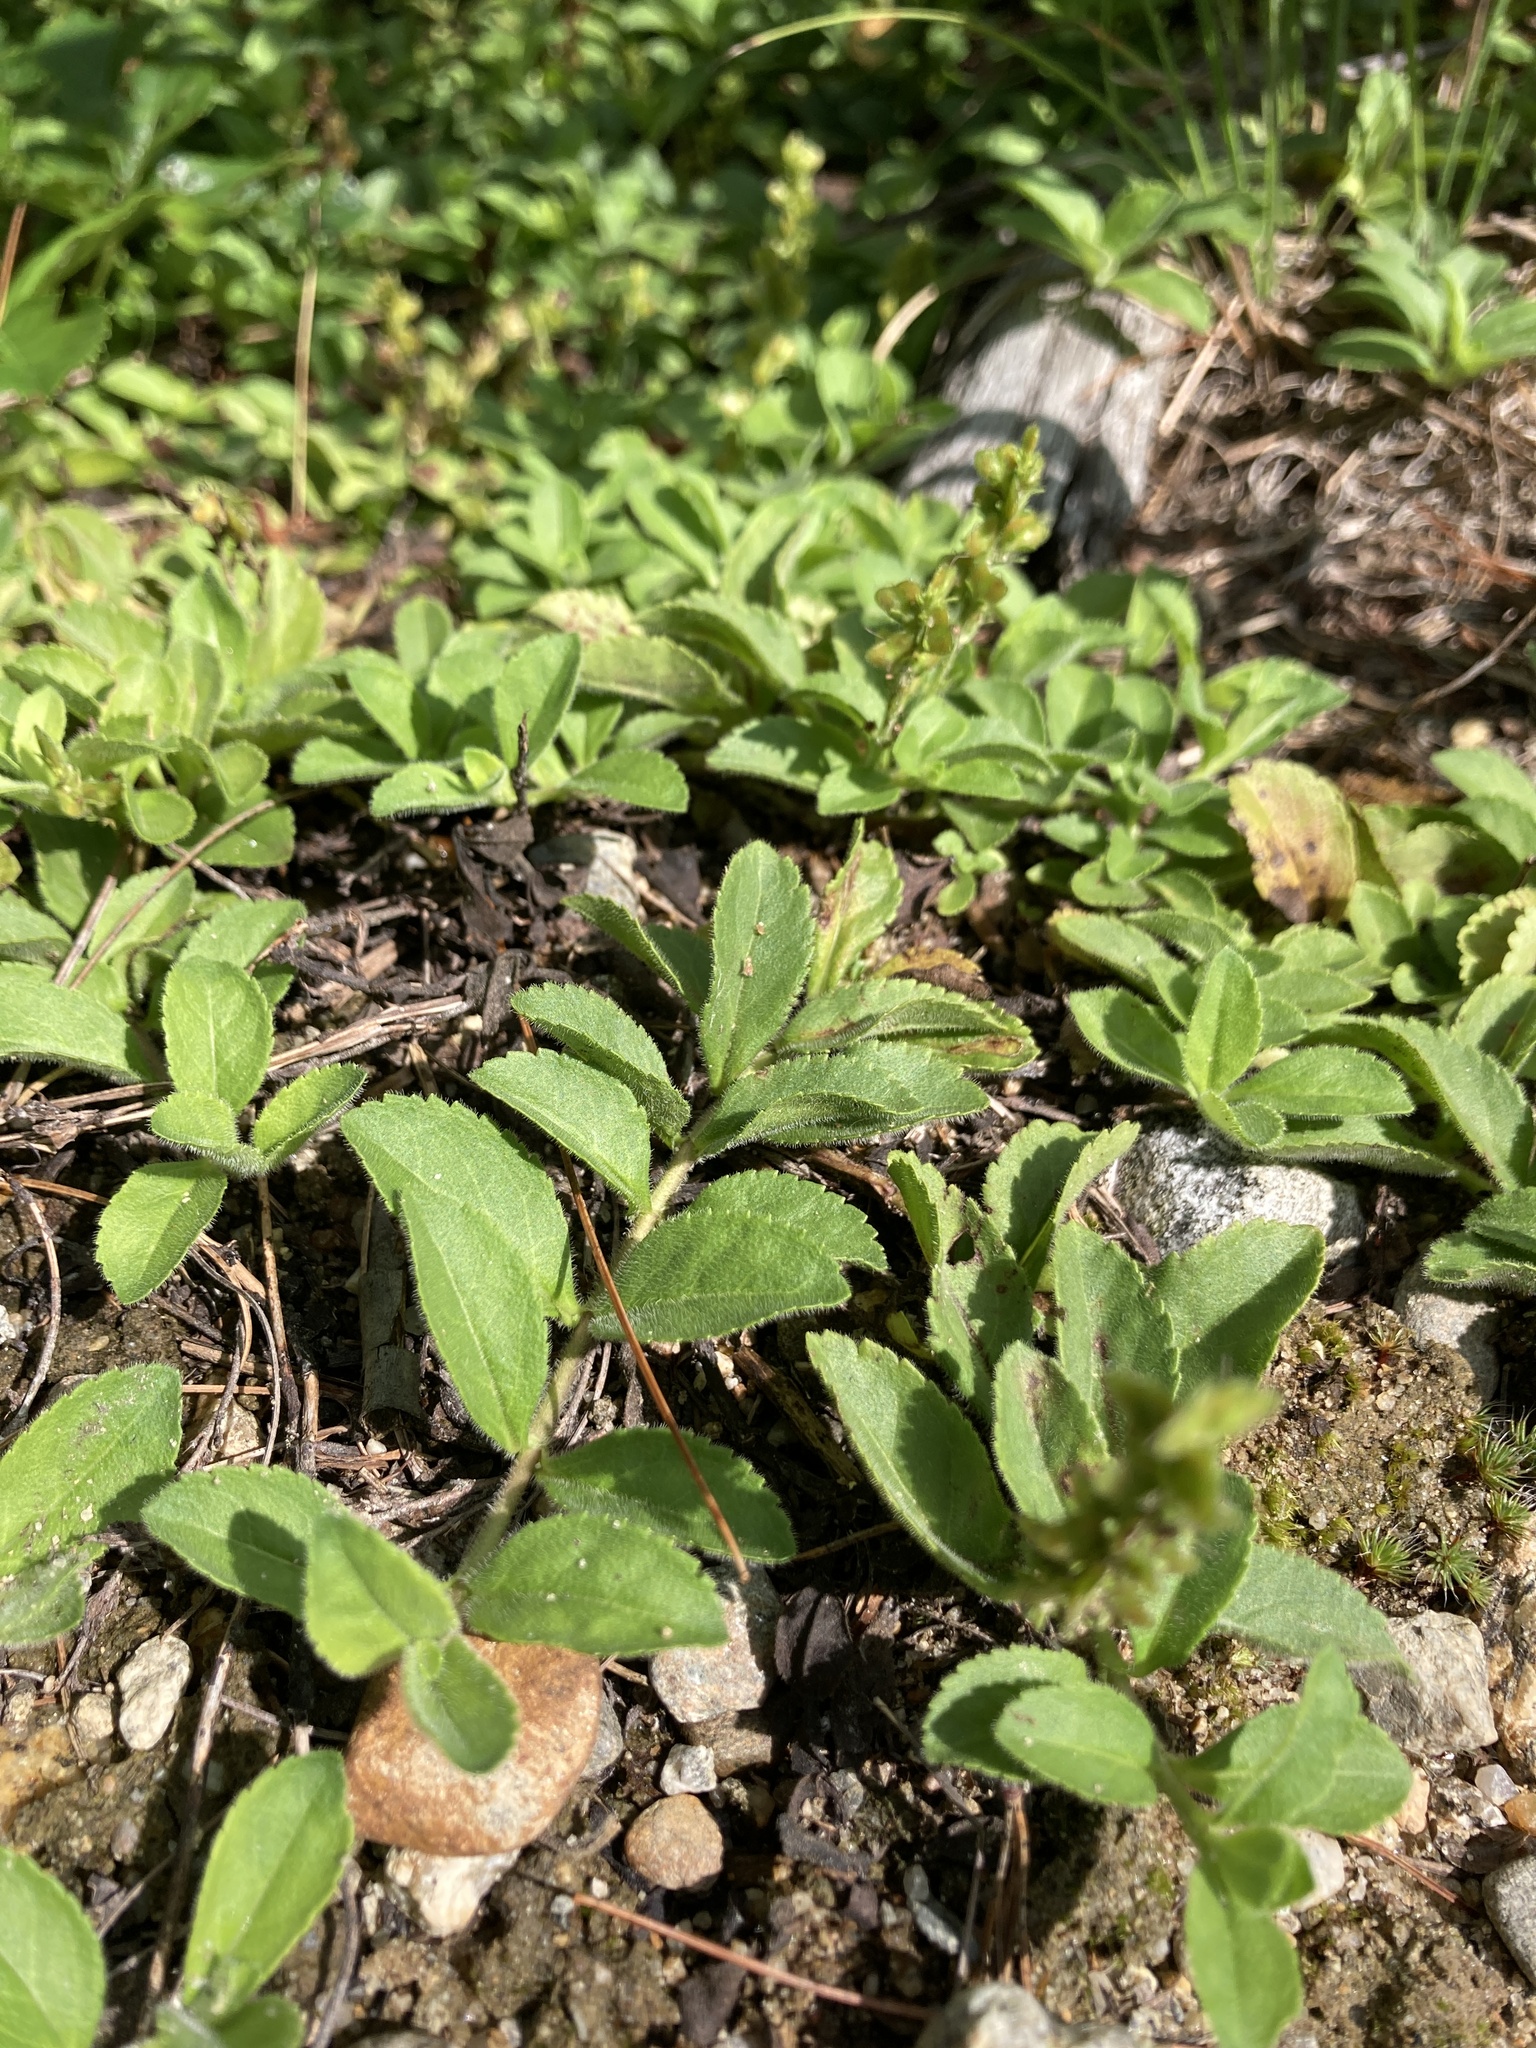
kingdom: Plantae
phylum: Tracheophyta
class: Magnoliopsida
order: Lamiales
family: Plantaginaceae
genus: Veronica
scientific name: Veronica officinalis
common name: Common speedwell
